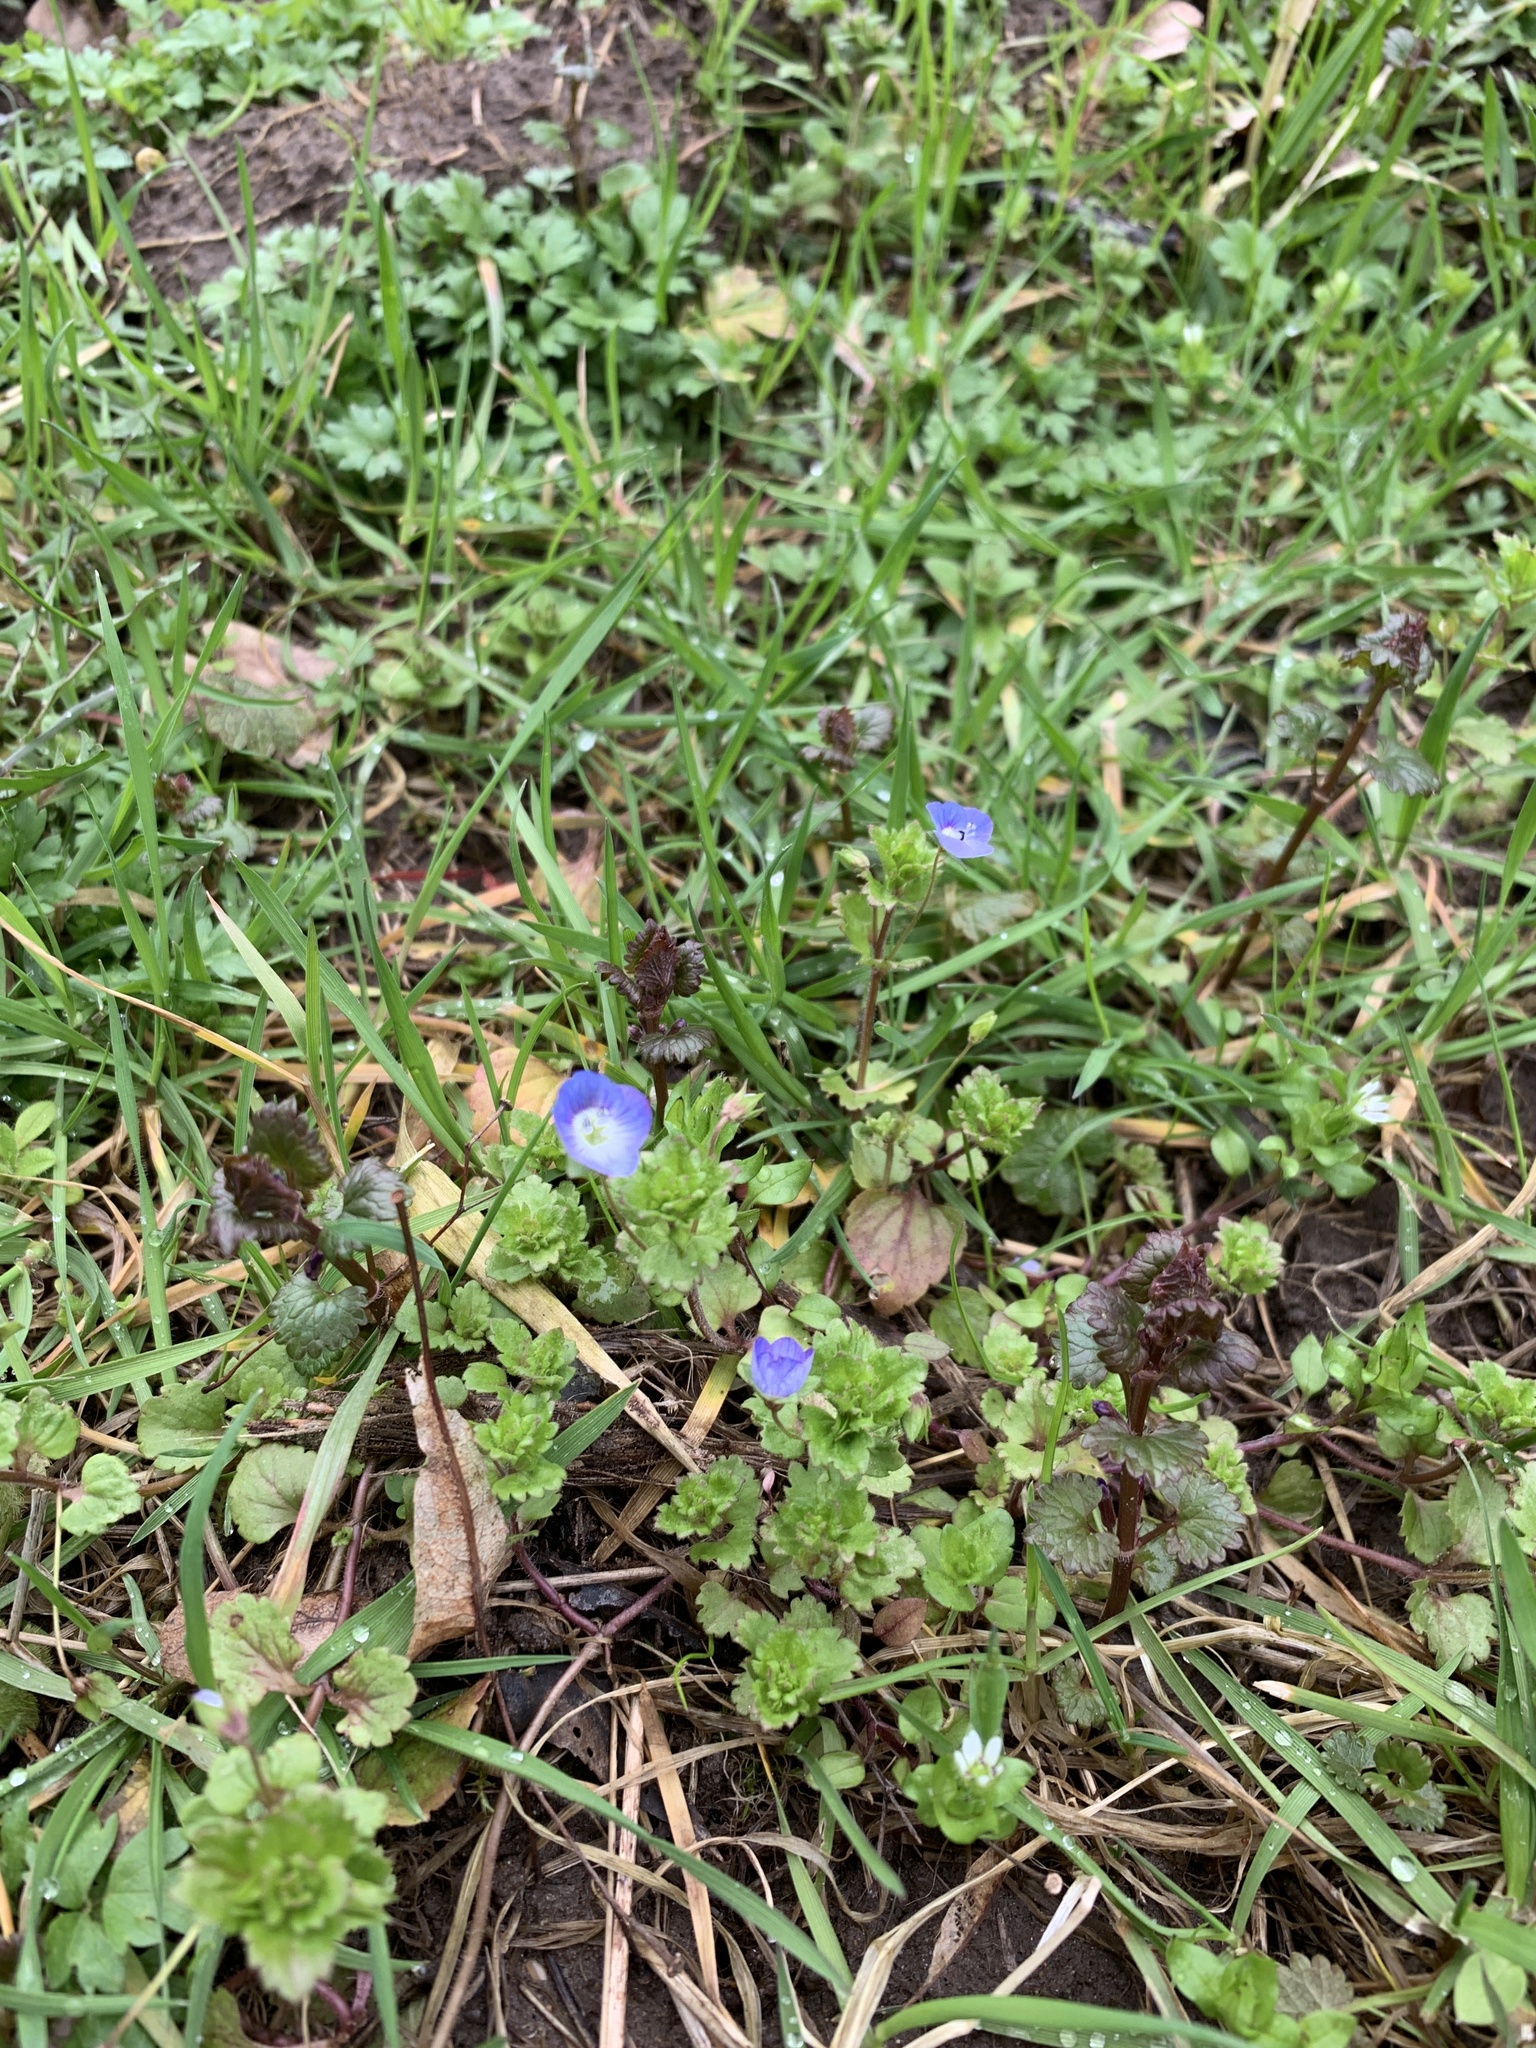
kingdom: Plantae
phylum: Tracheophyta
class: Magnoliopsida
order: Lamiales
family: Plantaginaceae
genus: Veronica
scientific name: Veronica persica
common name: Common field-speedwell
